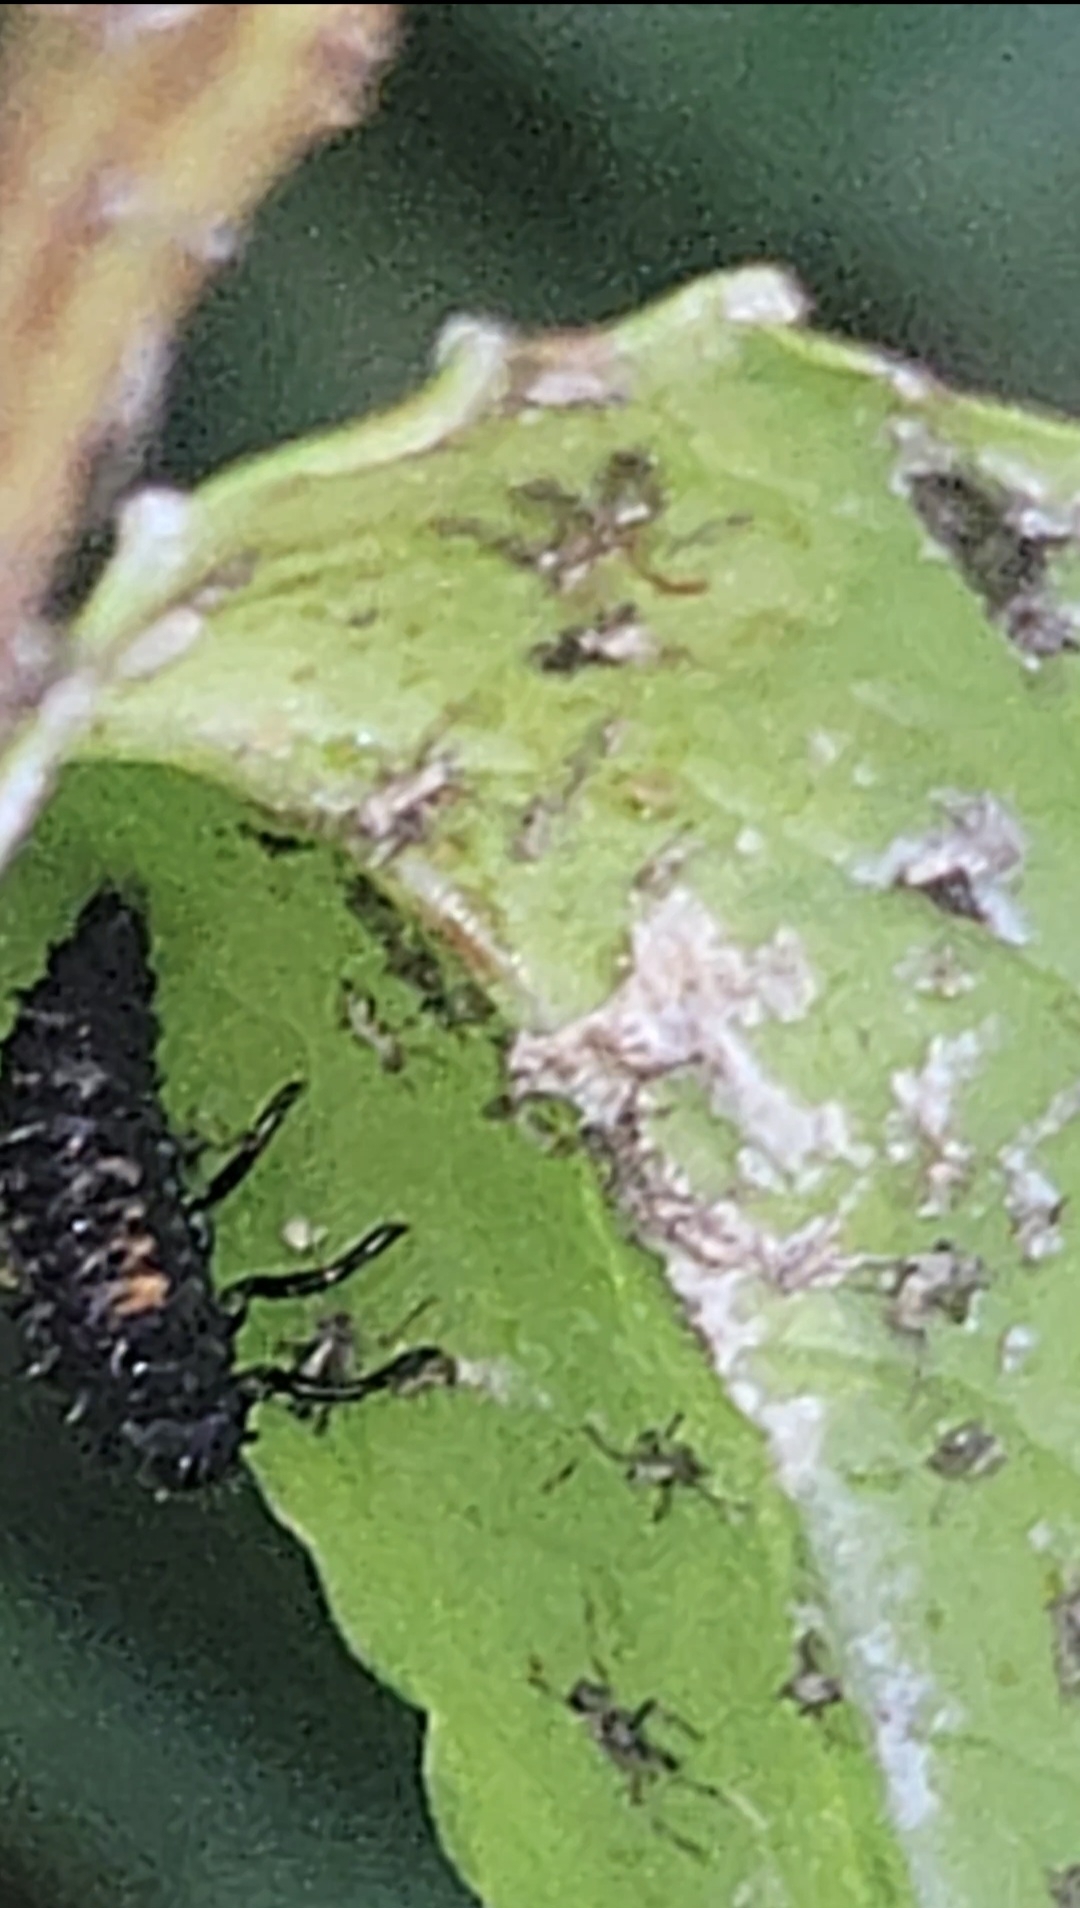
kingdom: Animalia
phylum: Arthropoda
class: Insecta
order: Coleoptera
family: Coccinellidae
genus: Harmonia
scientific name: Harmonia axyridis
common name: Harlequin ladybird
